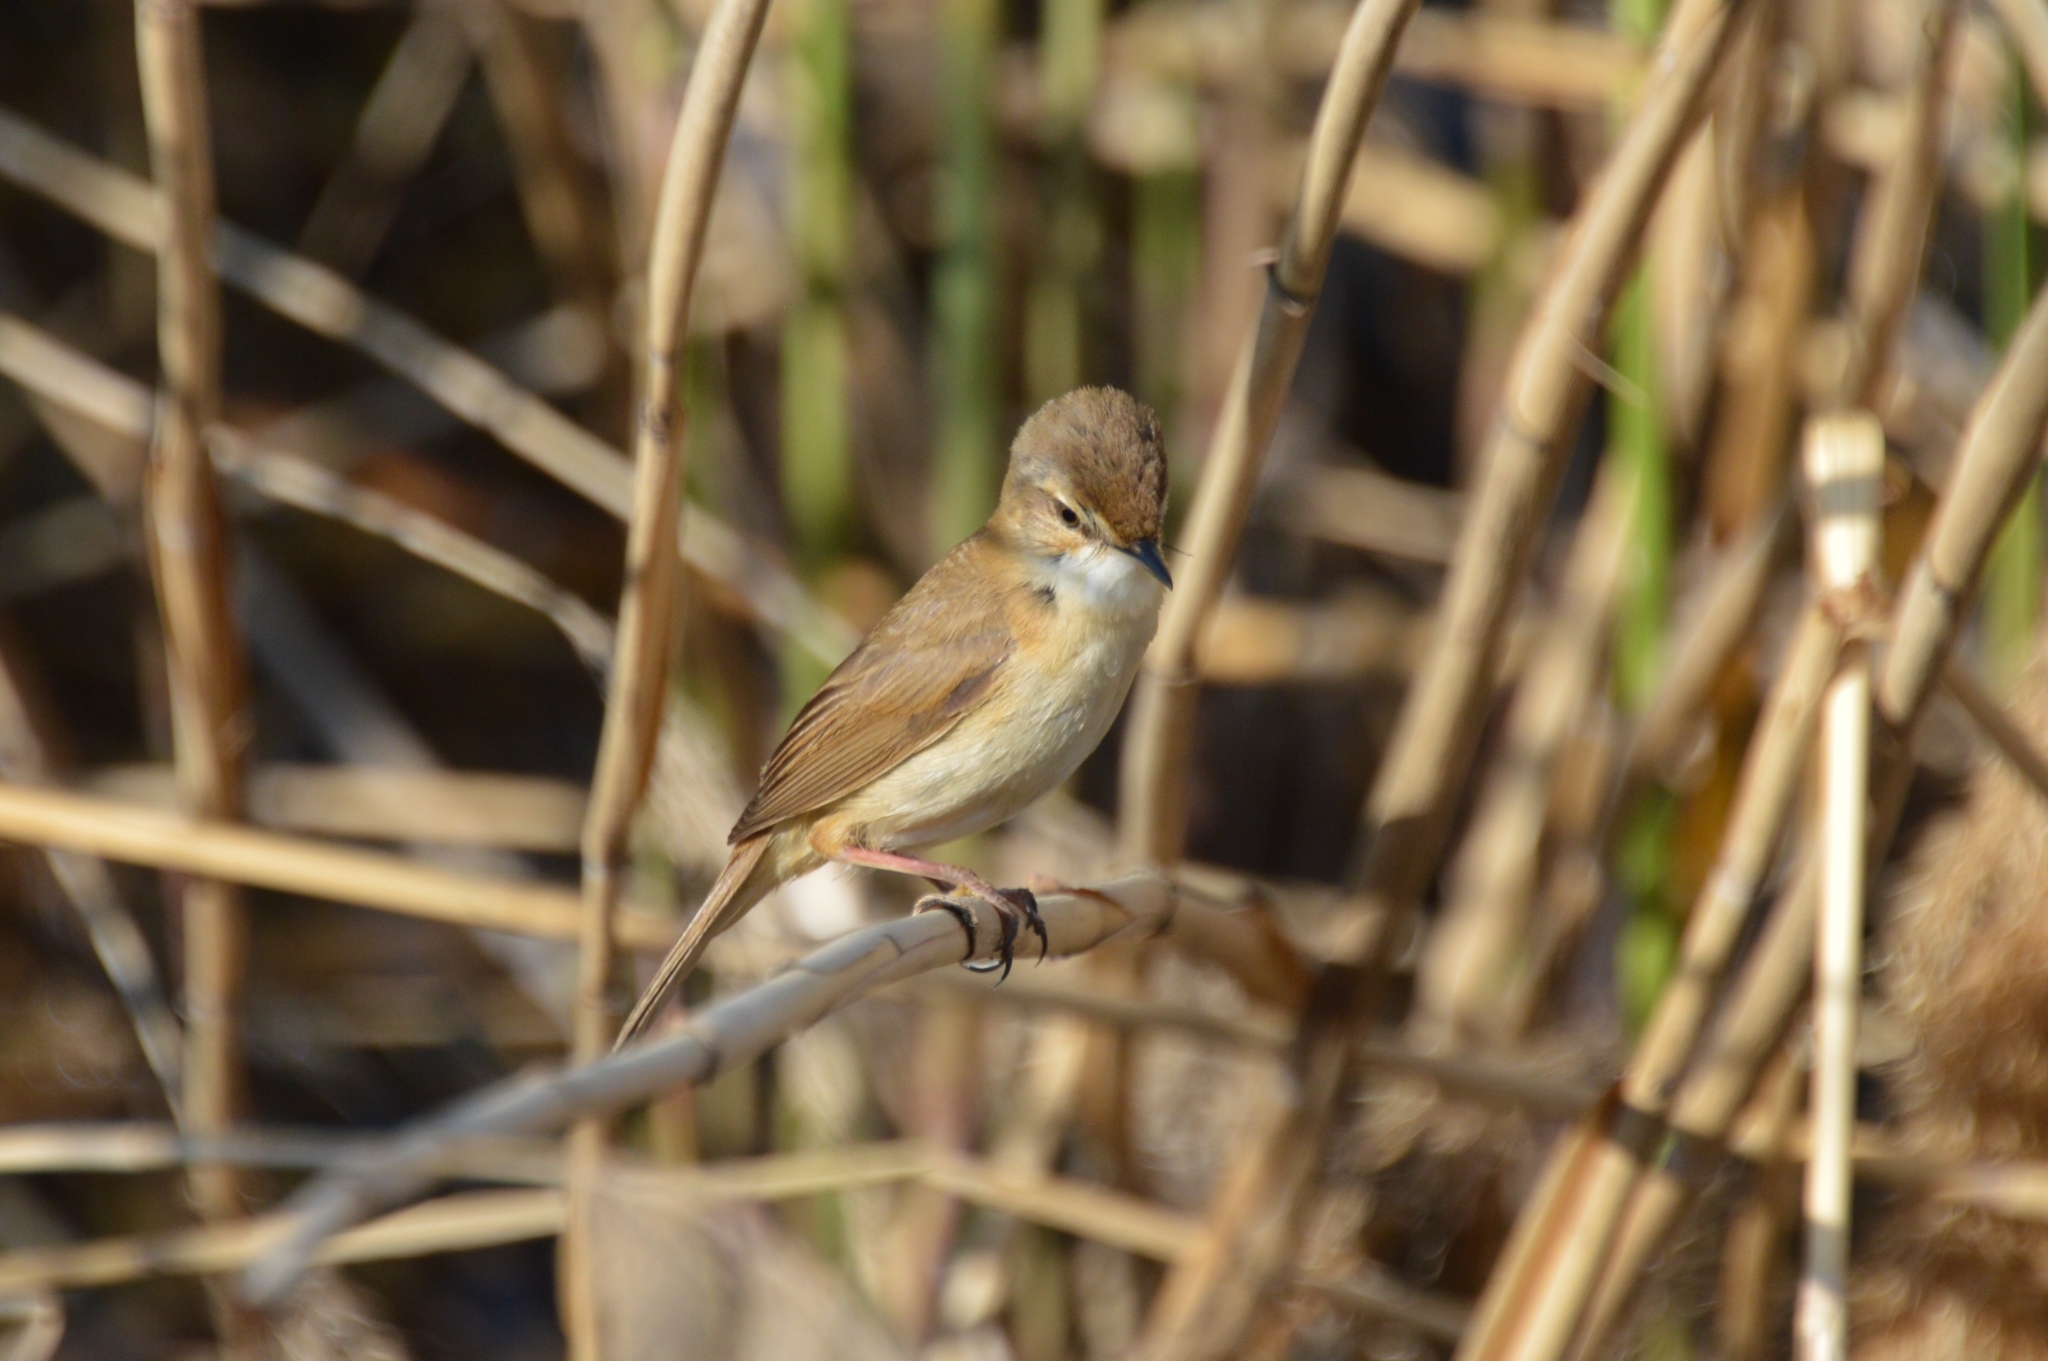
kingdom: Animalia
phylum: Chordata
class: Aves
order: Passeriformes
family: Acrocephalidae
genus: Acrocephalus
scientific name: Acrocephalus agricola
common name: Paddyfield warbler
